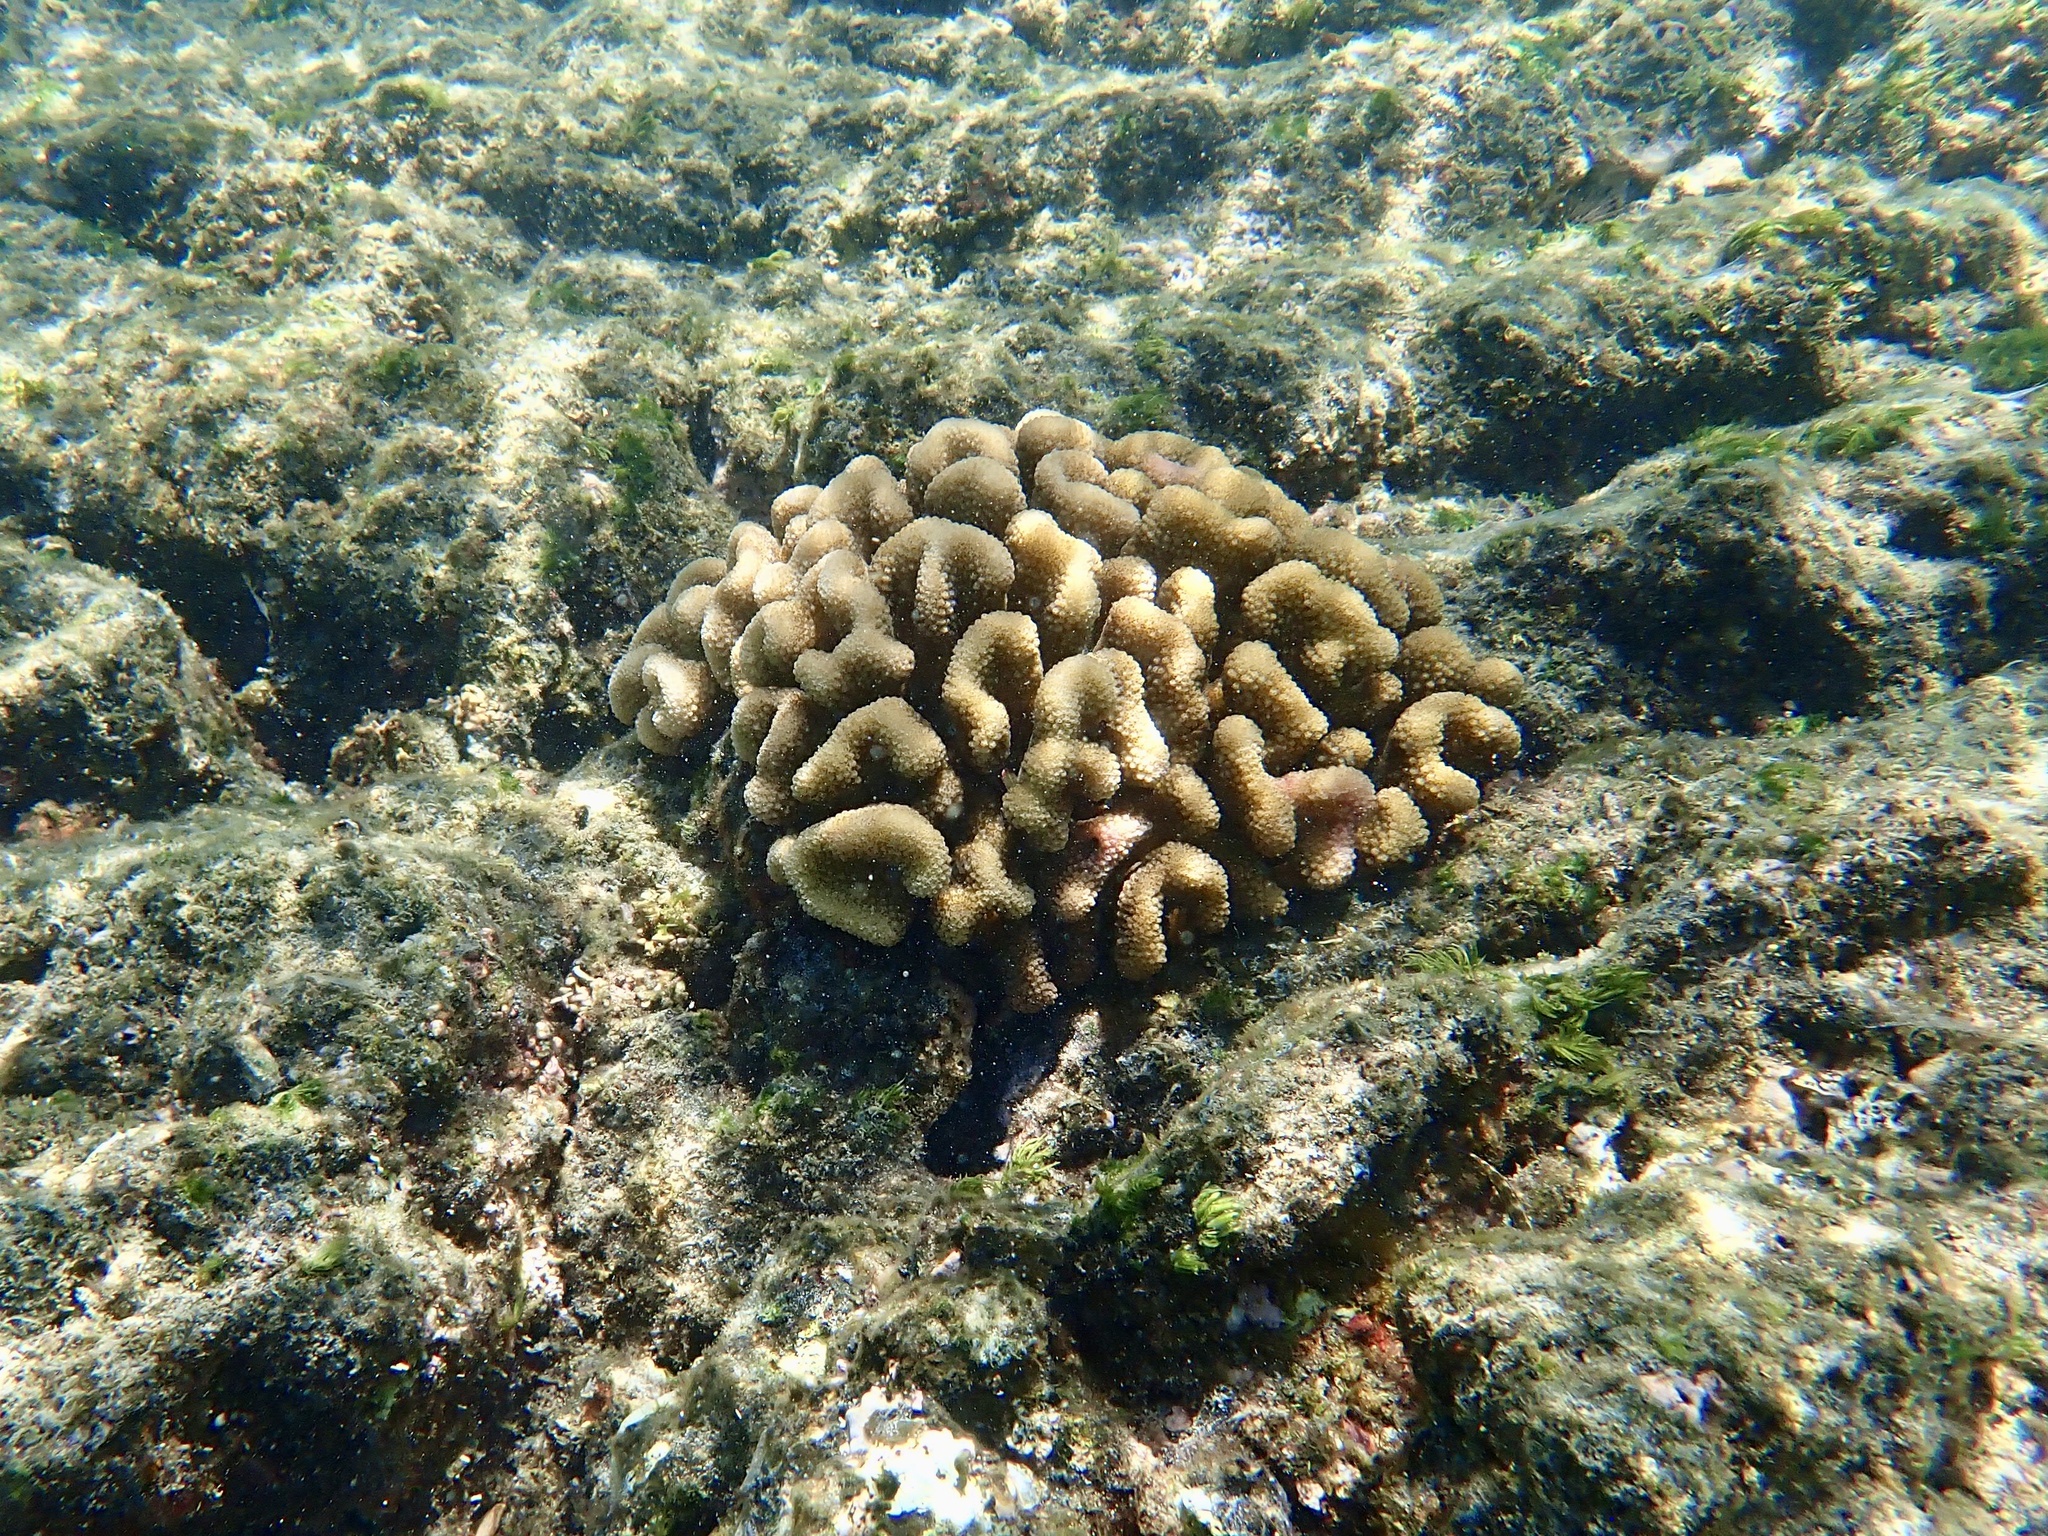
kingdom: Animalia
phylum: Cnidaria
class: Anthozoa
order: Scleractinia
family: Pocilloporidae
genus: Pocillopora
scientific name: Pocillopora meandrina
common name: Cauliflower coral
